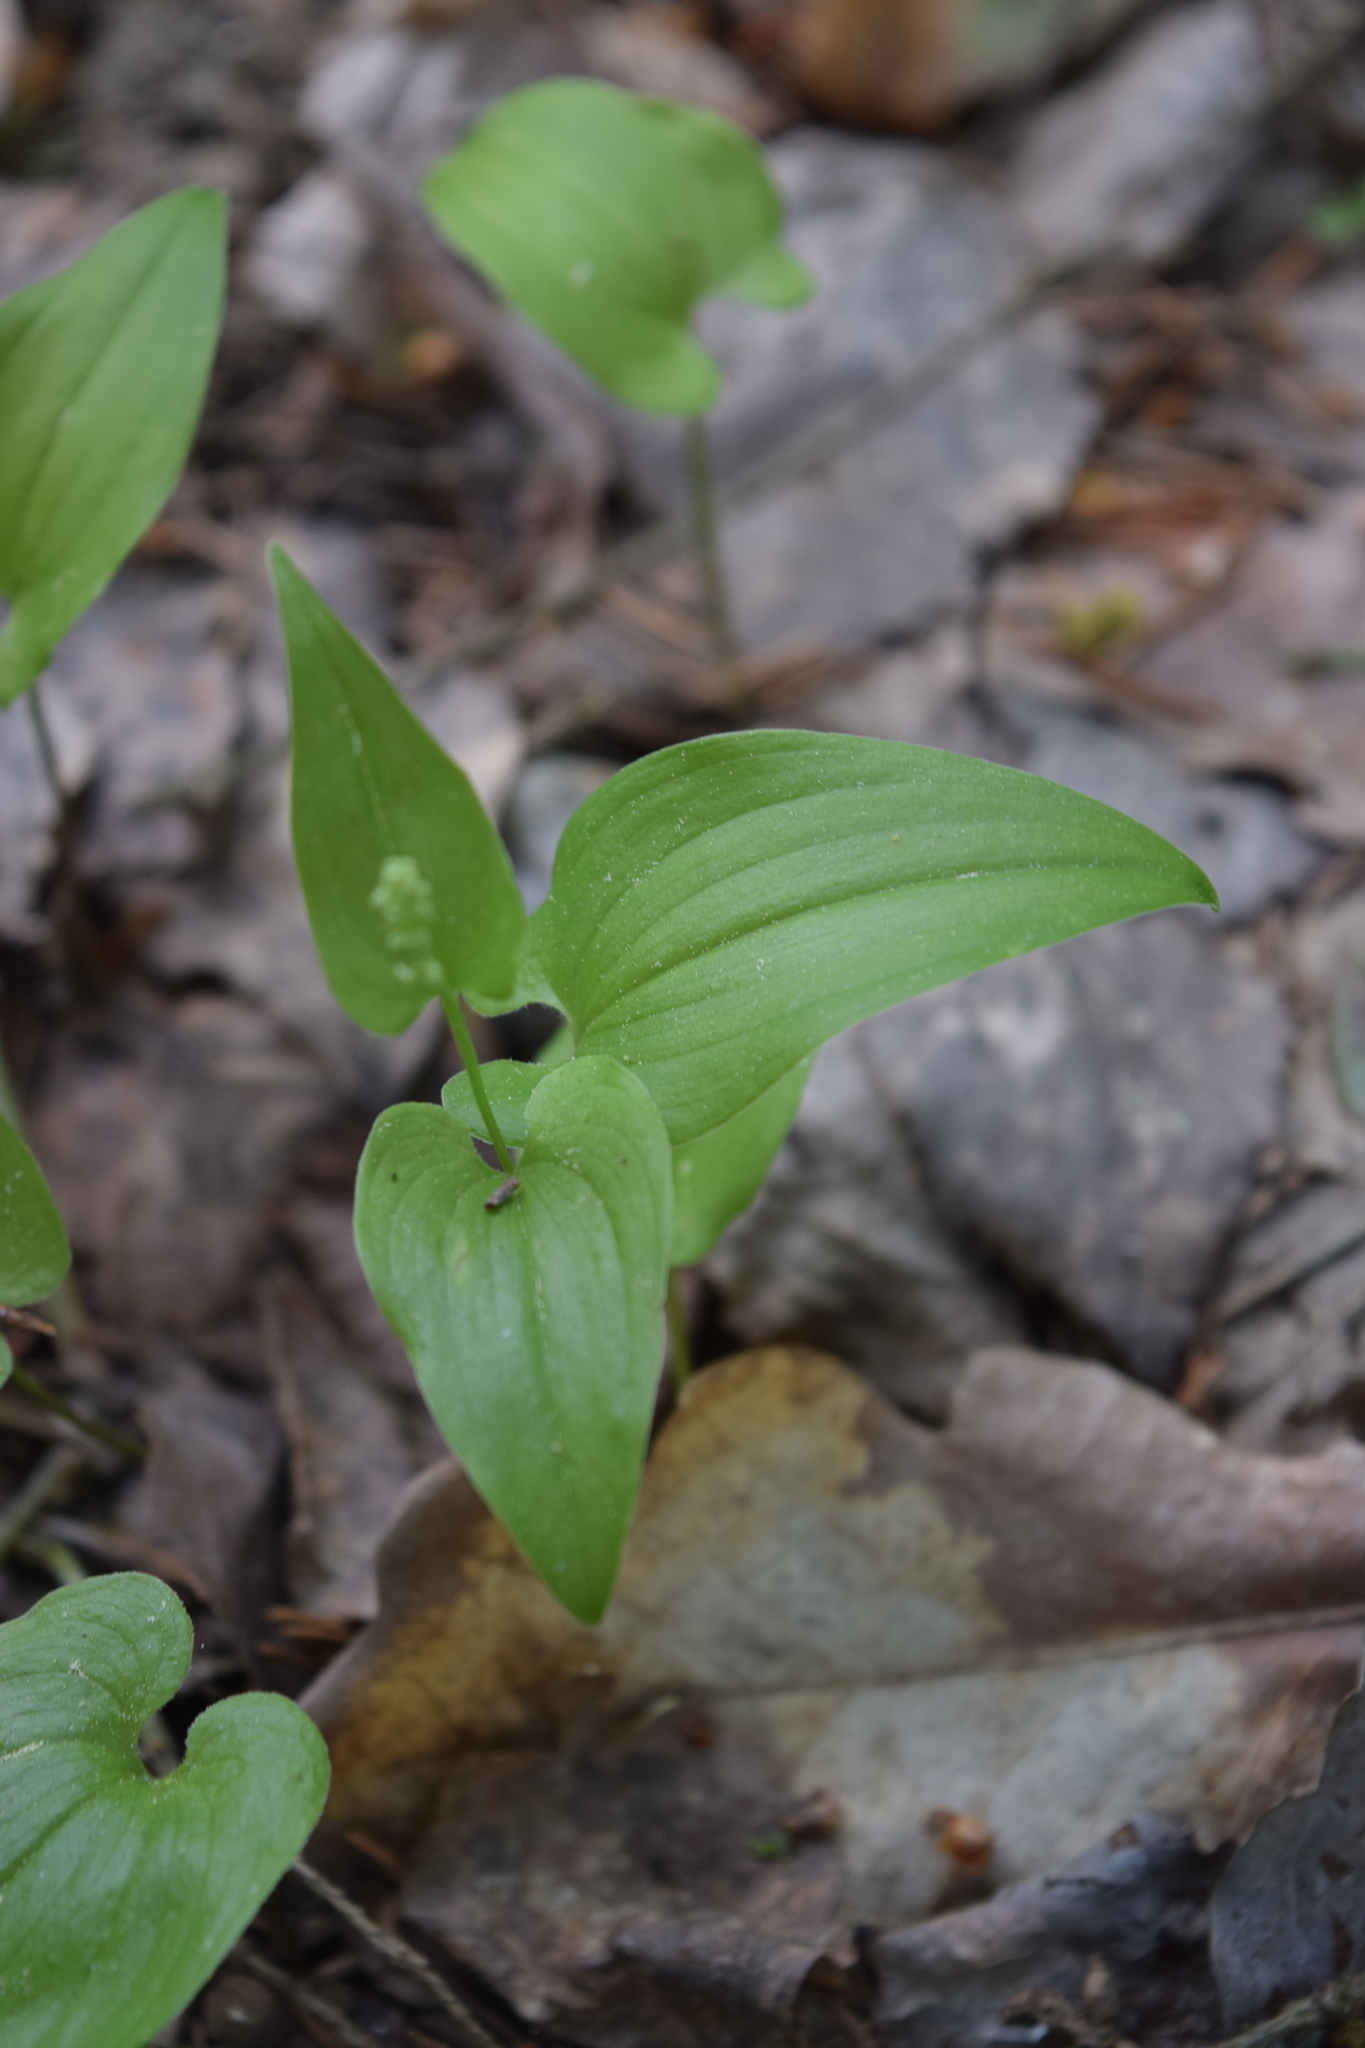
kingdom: Plantae
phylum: Tracheophyta
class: Liliopsida
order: Asparagales
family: Asparagaceae
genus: Maianthemum
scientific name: Maianthemum bifolium
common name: May lily
